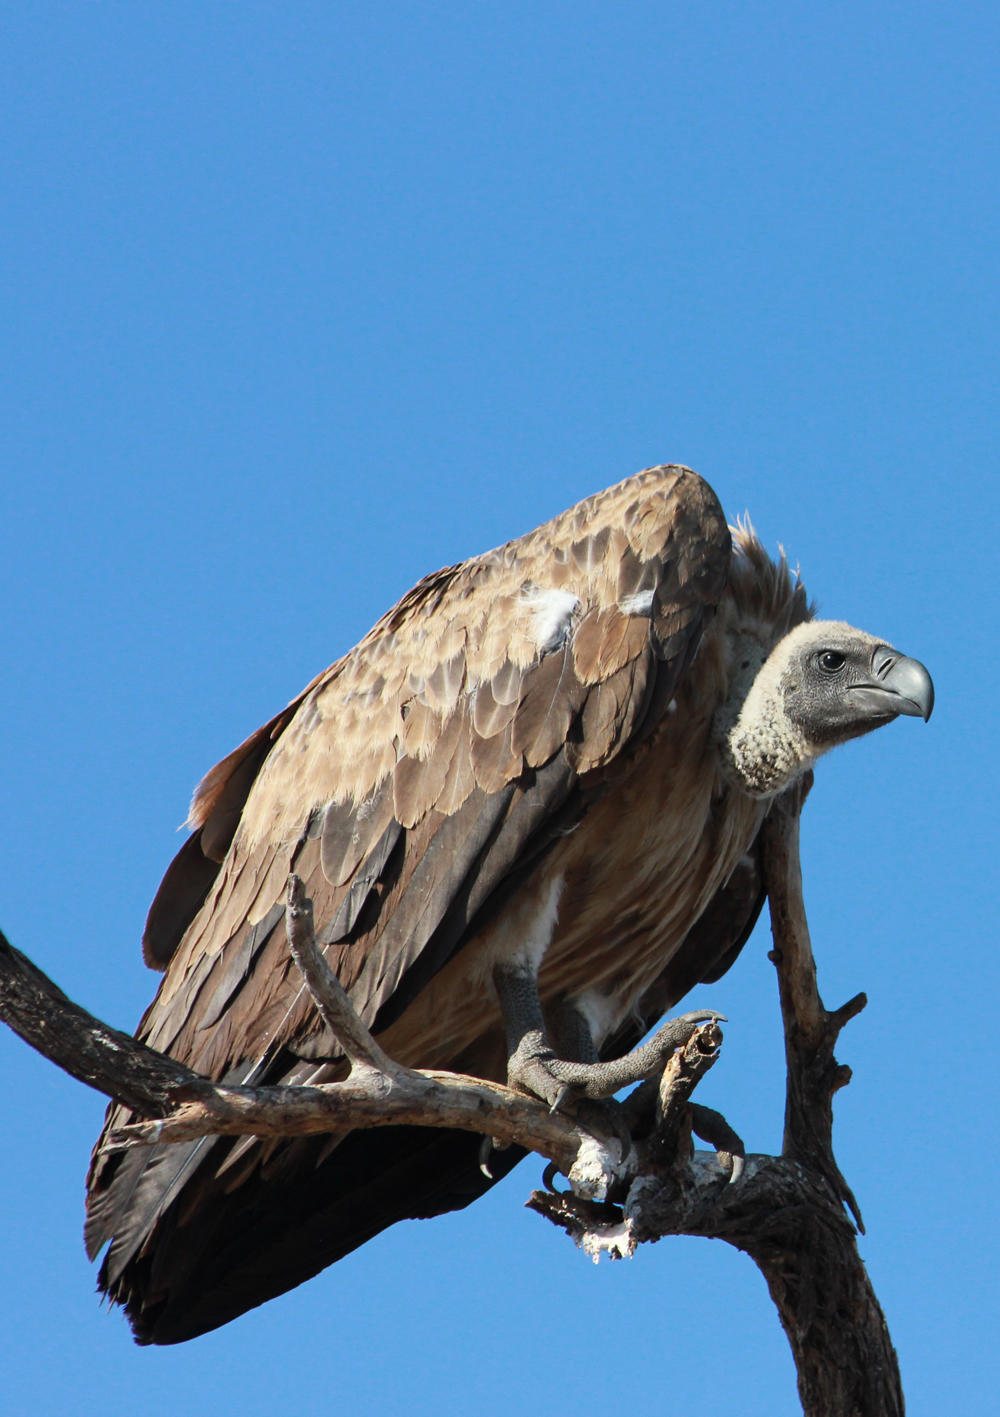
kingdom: Animalia
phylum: Chordata
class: Aves
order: Accipitriformes
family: Accipitridae
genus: Gyps
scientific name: Gyps africanus
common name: White-backed vulture
